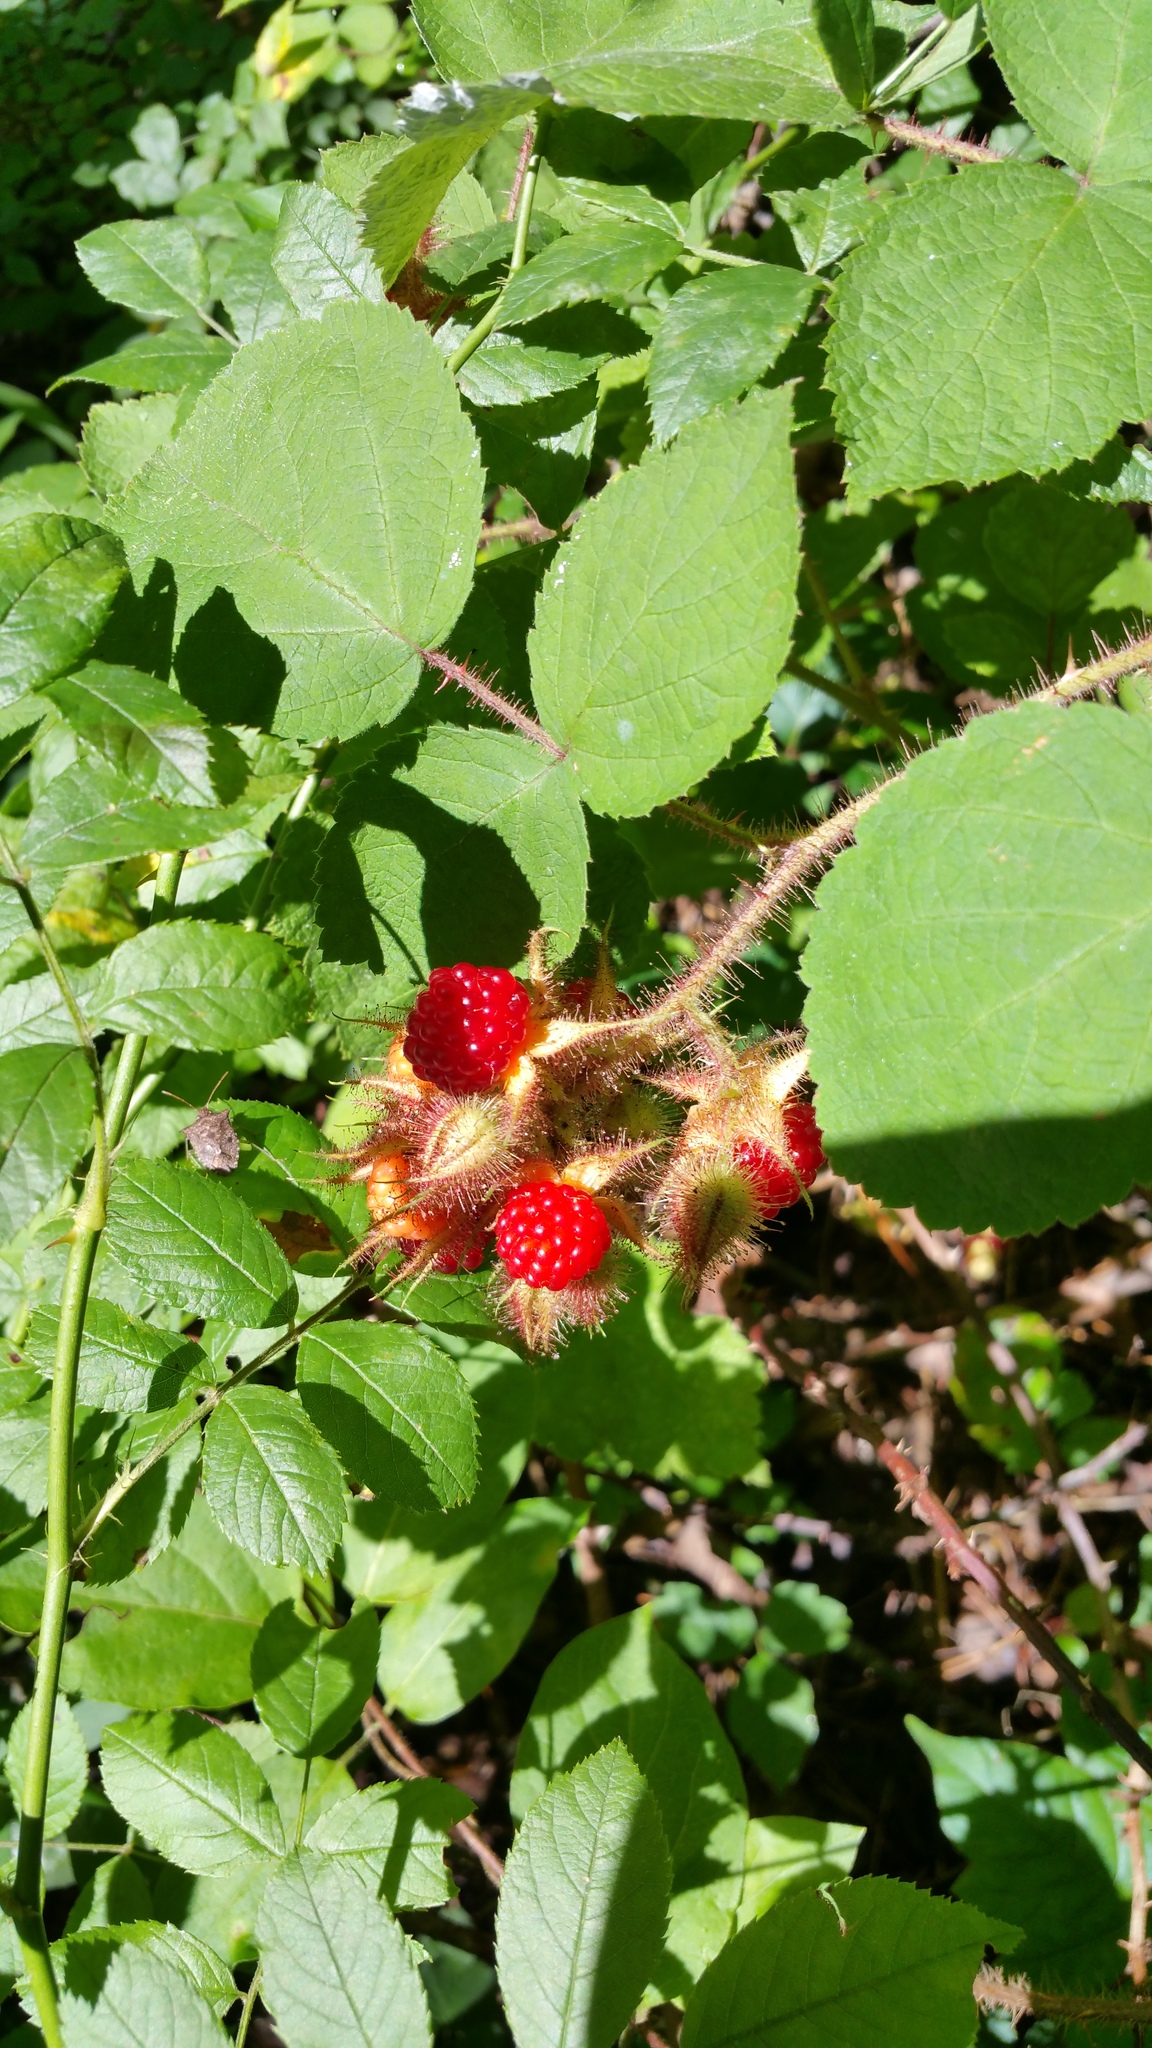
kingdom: Plantae
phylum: Tracheophyta
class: Magnoliopsida
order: Rosales
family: Rosaceae
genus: Rubus
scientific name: Rubus phoenicolasius
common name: Japanese wineberry
